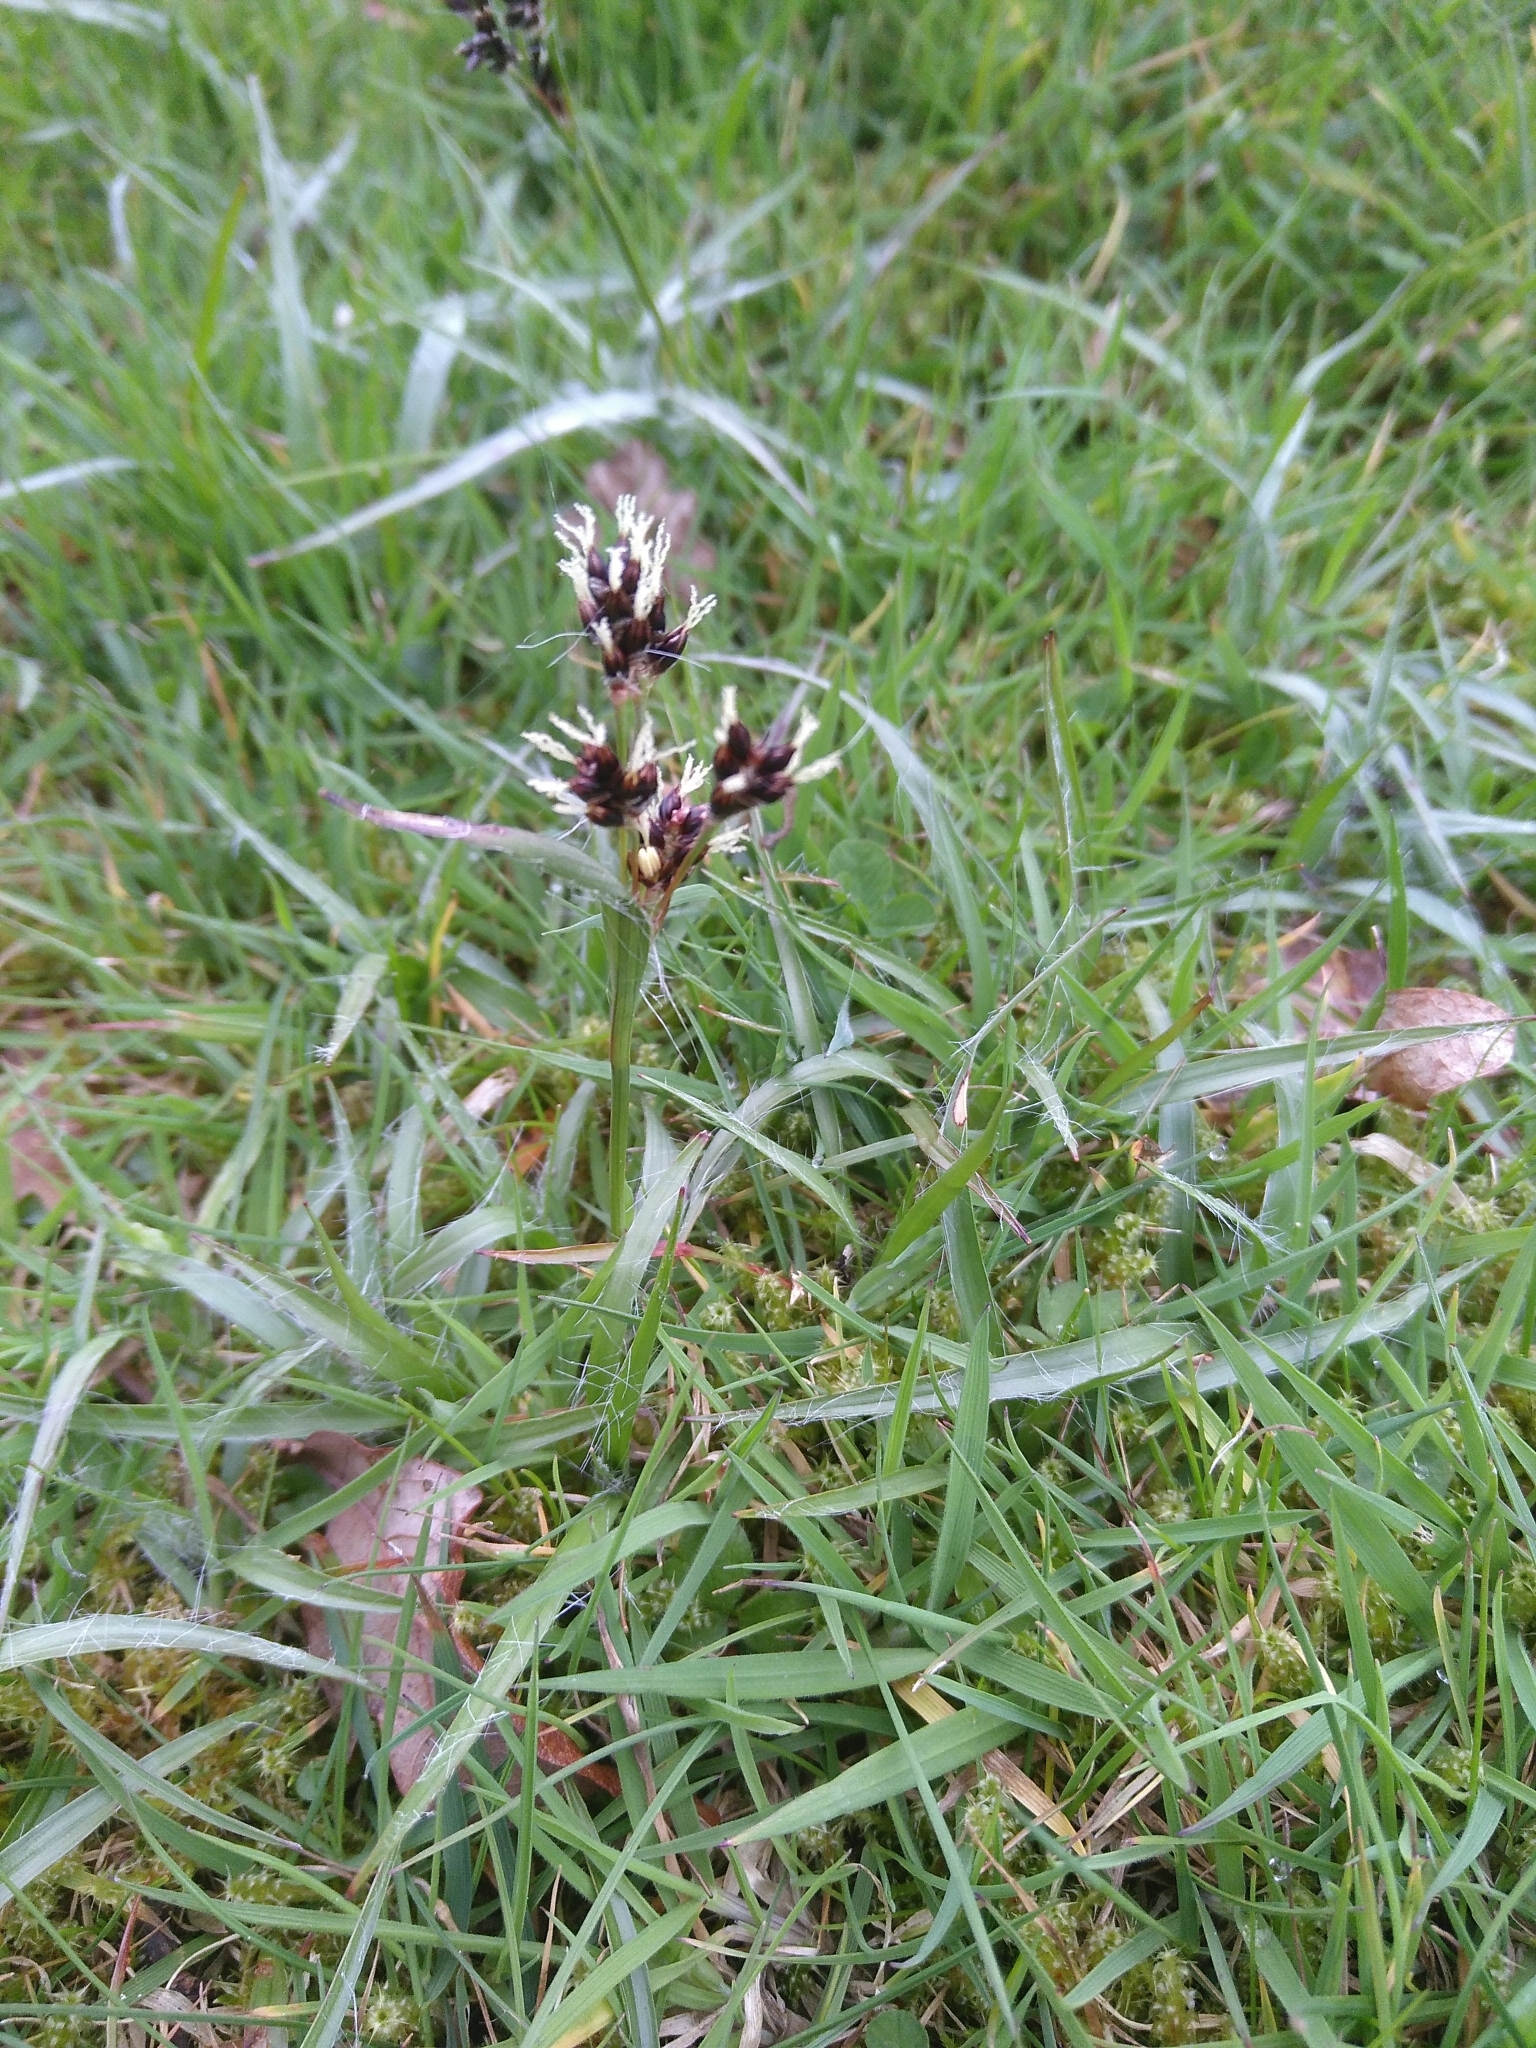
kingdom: Plantae
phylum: Tracheophyta
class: Liliopsida
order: Poales
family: Juncaceae
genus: Luzula
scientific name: Luzula campestris
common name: Field wood-rush
